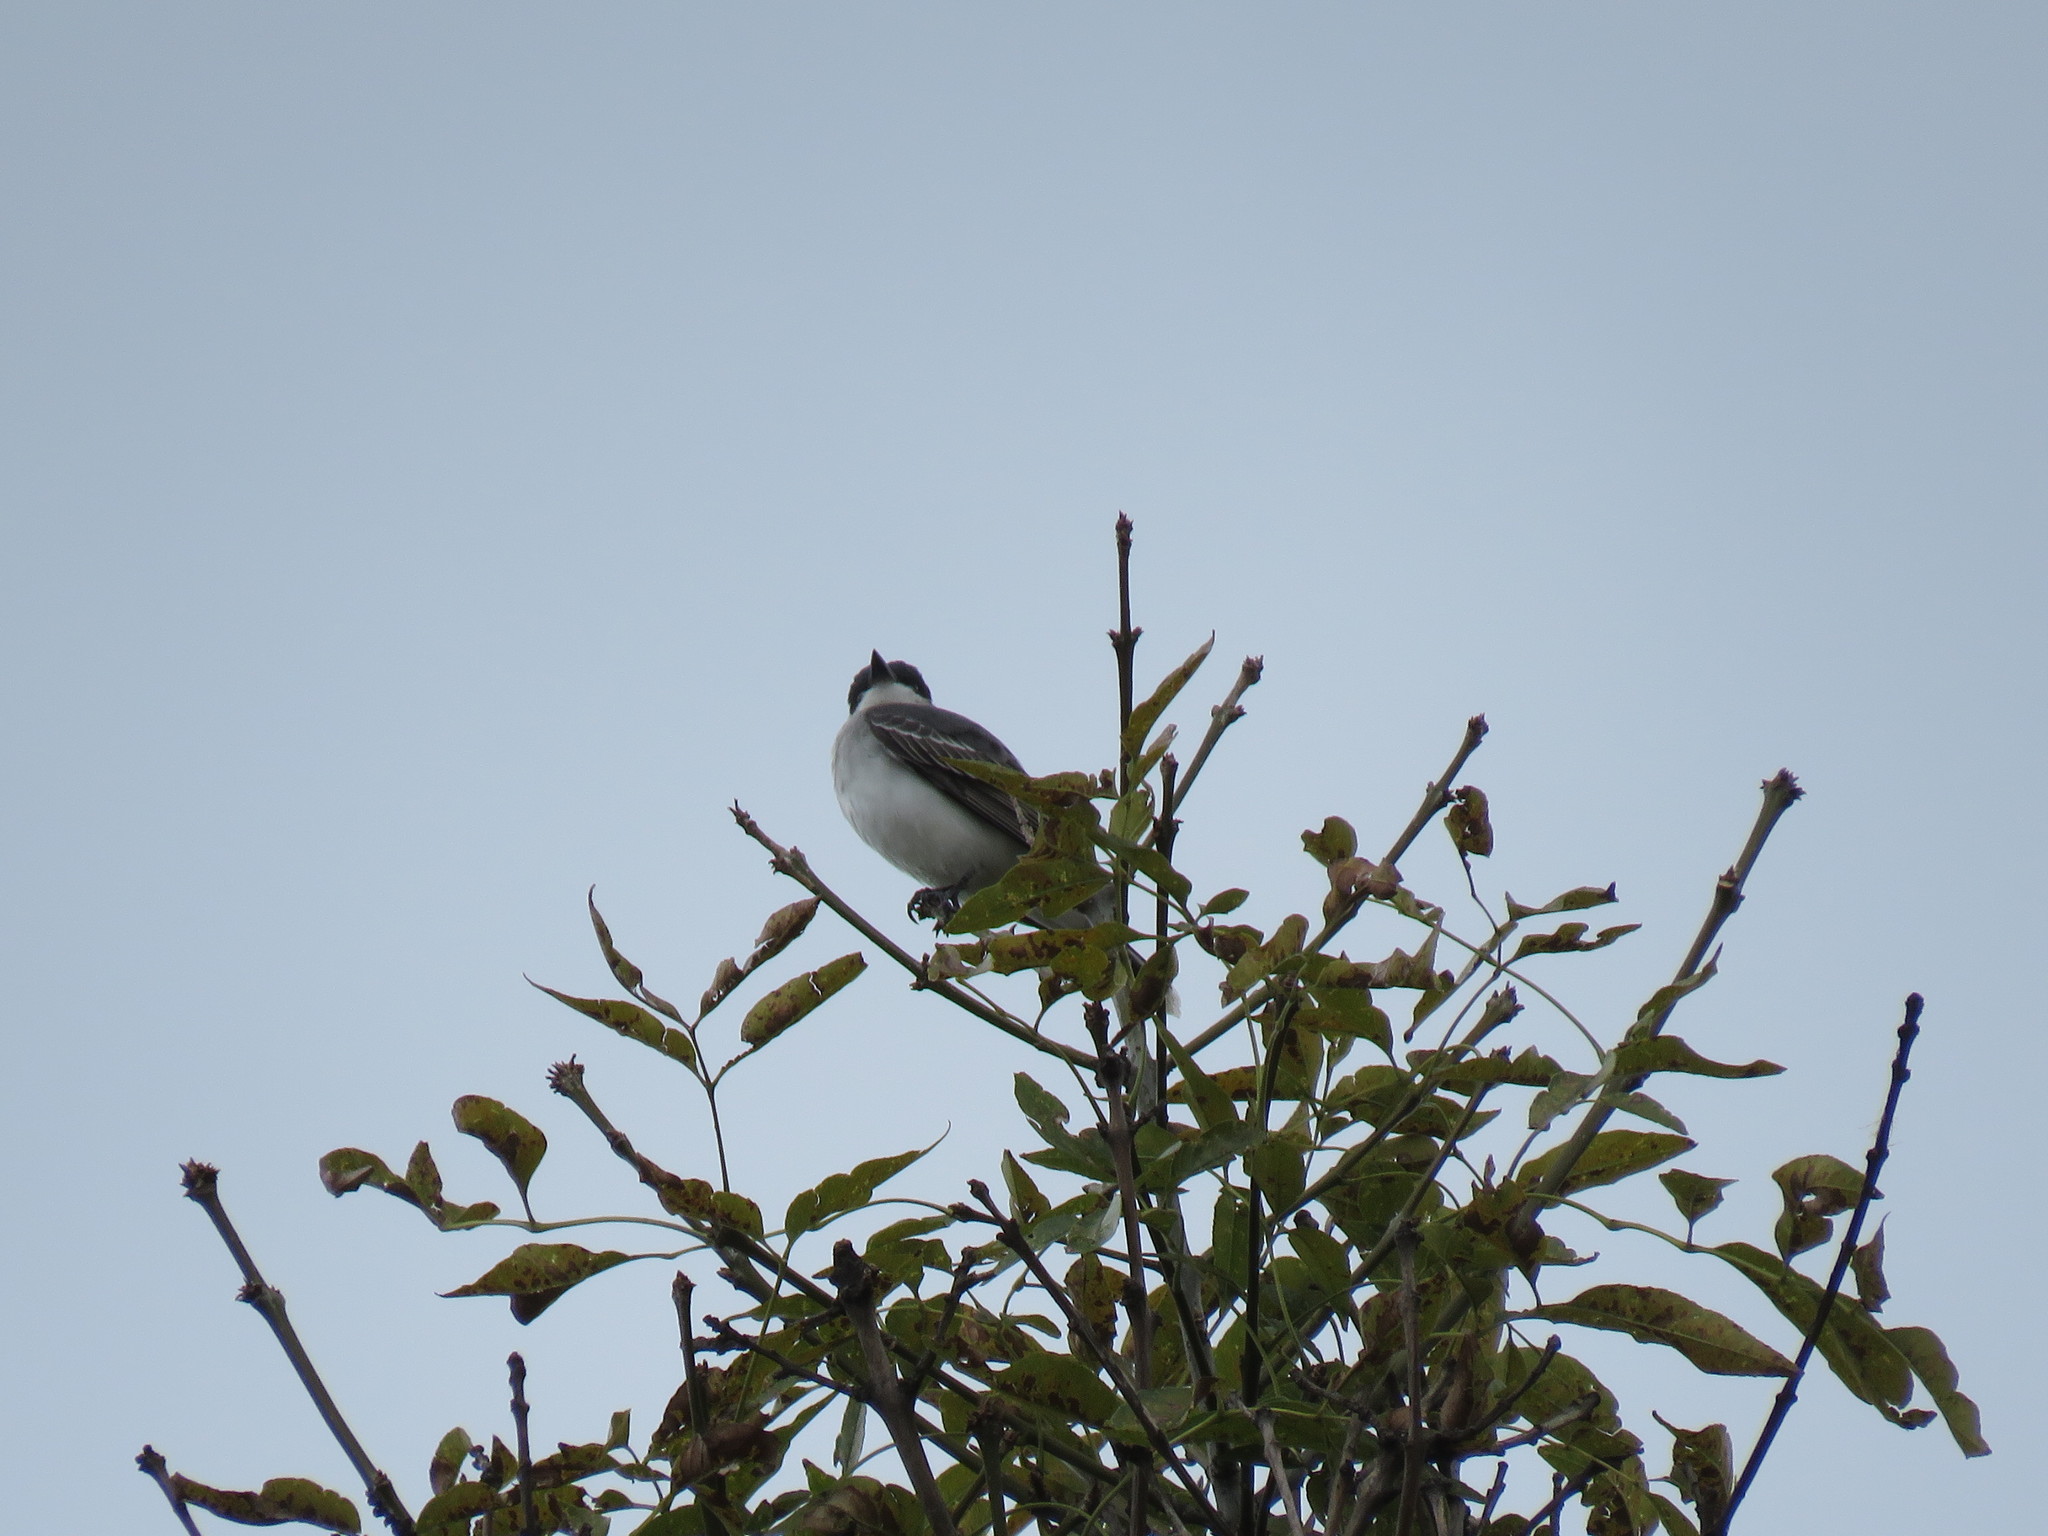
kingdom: Animalia
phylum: Chordata
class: Aves
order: Passeriformes
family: Tyrannidae
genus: Tyrannus
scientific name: Tyrannus tyrannus
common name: Eastern kingbird
